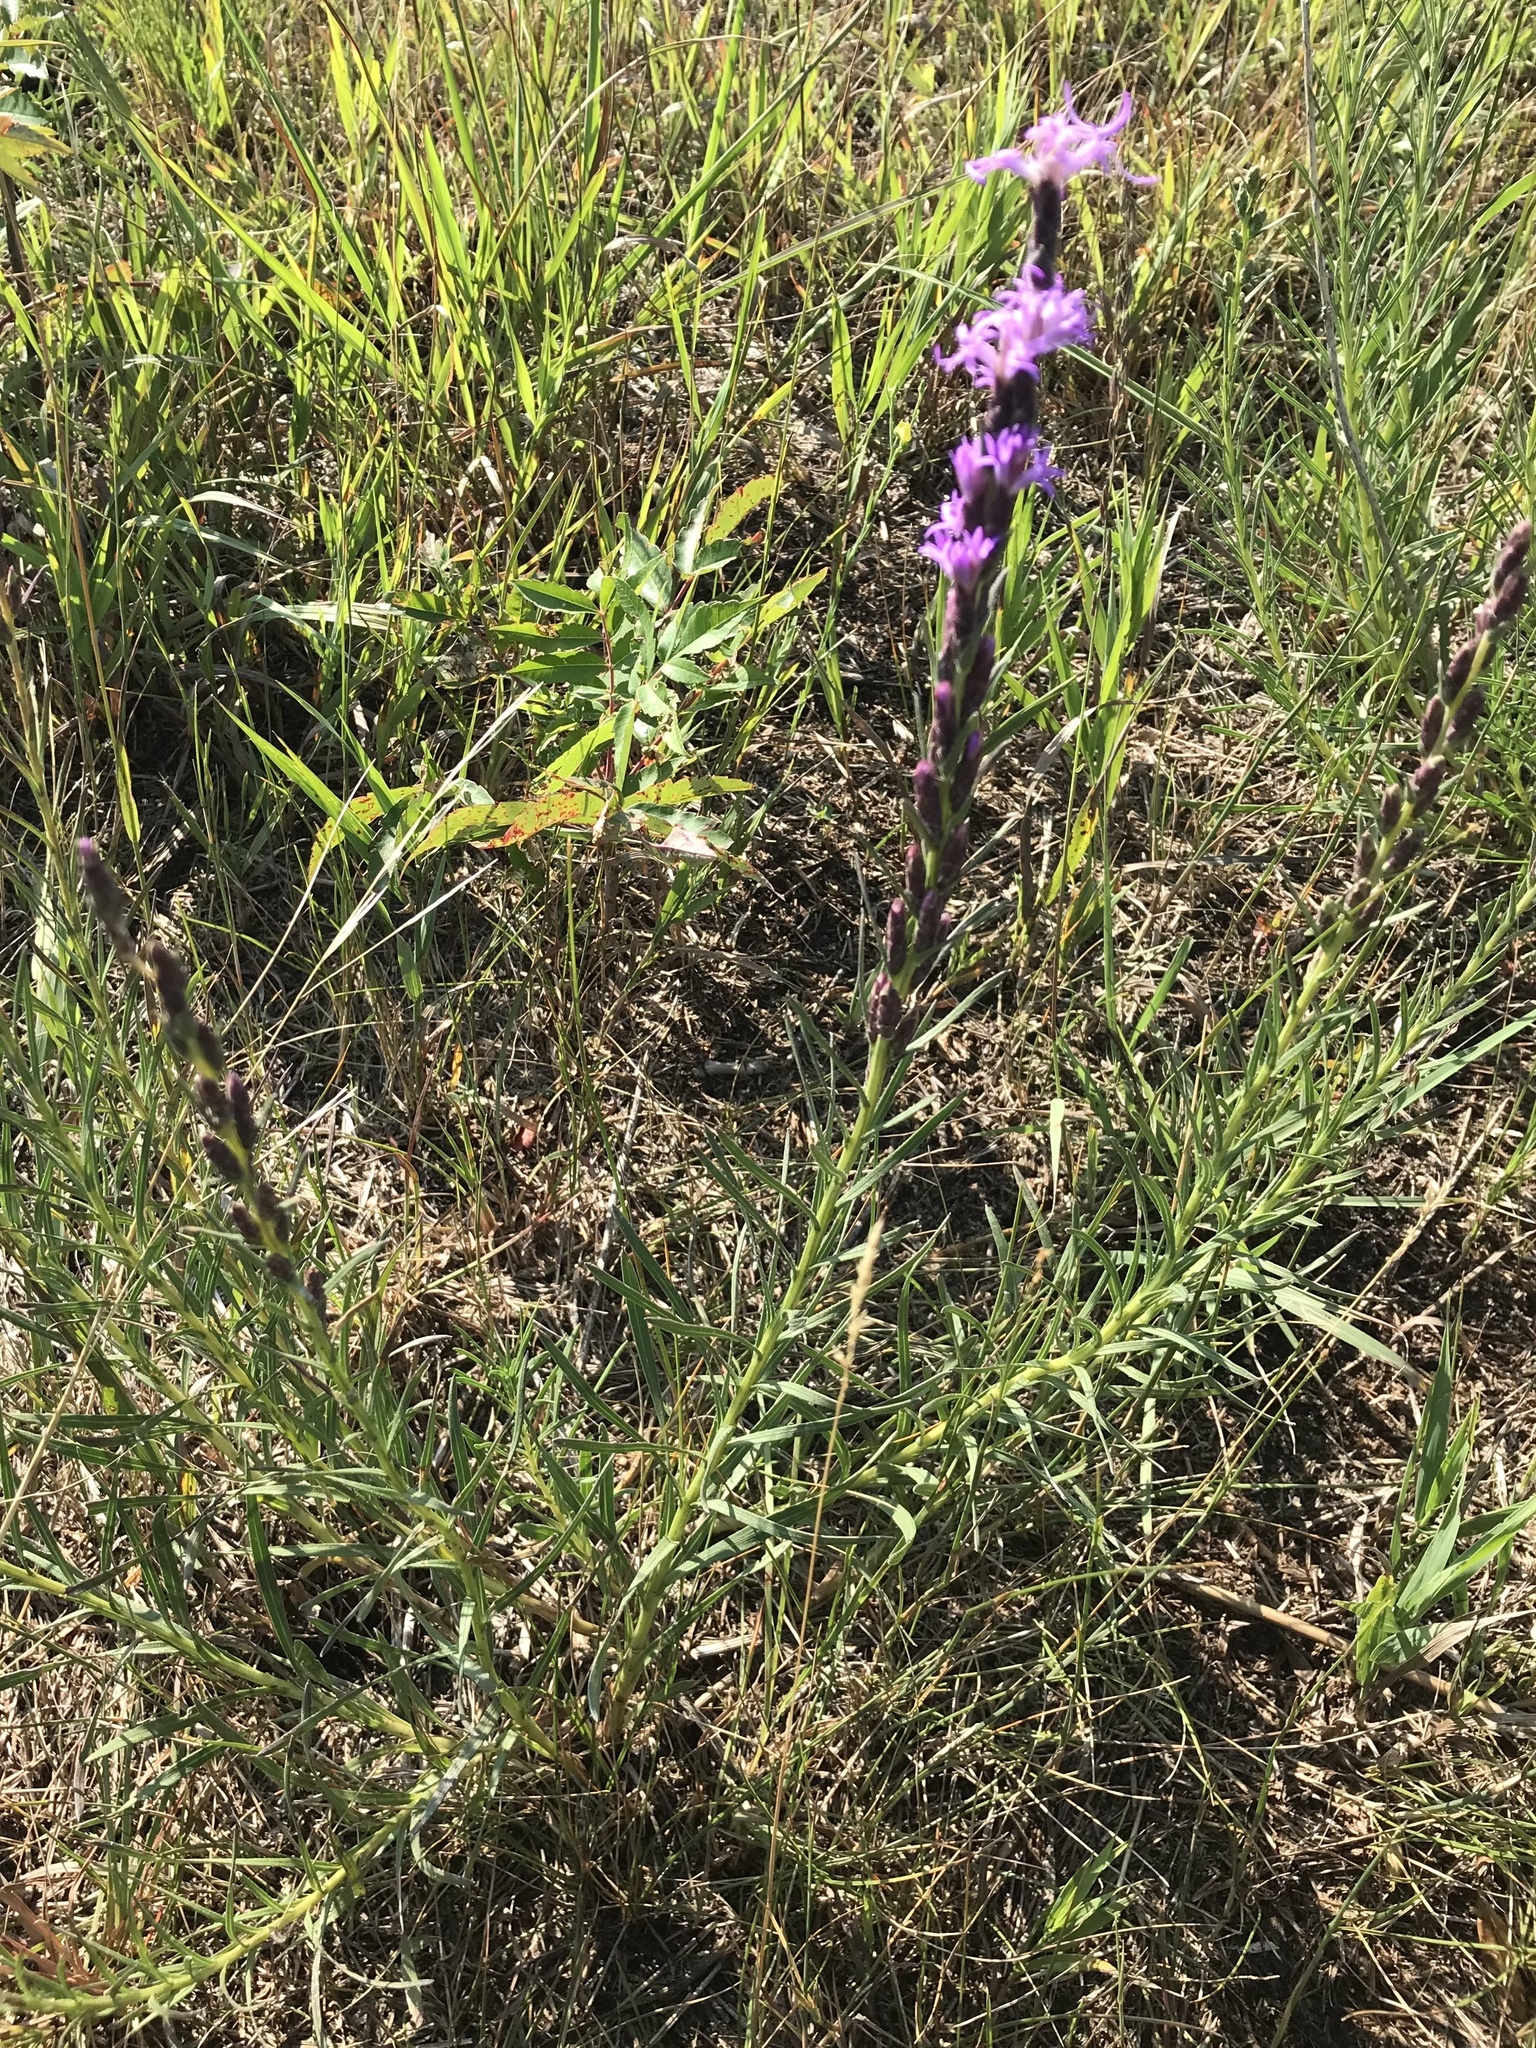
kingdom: Plantae
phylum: Tracheophyta
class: Magnoliopsida
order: Asterales
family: Asteraceae
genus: Liatris
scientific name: Liatris punctata
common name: Dotted gayfeather
